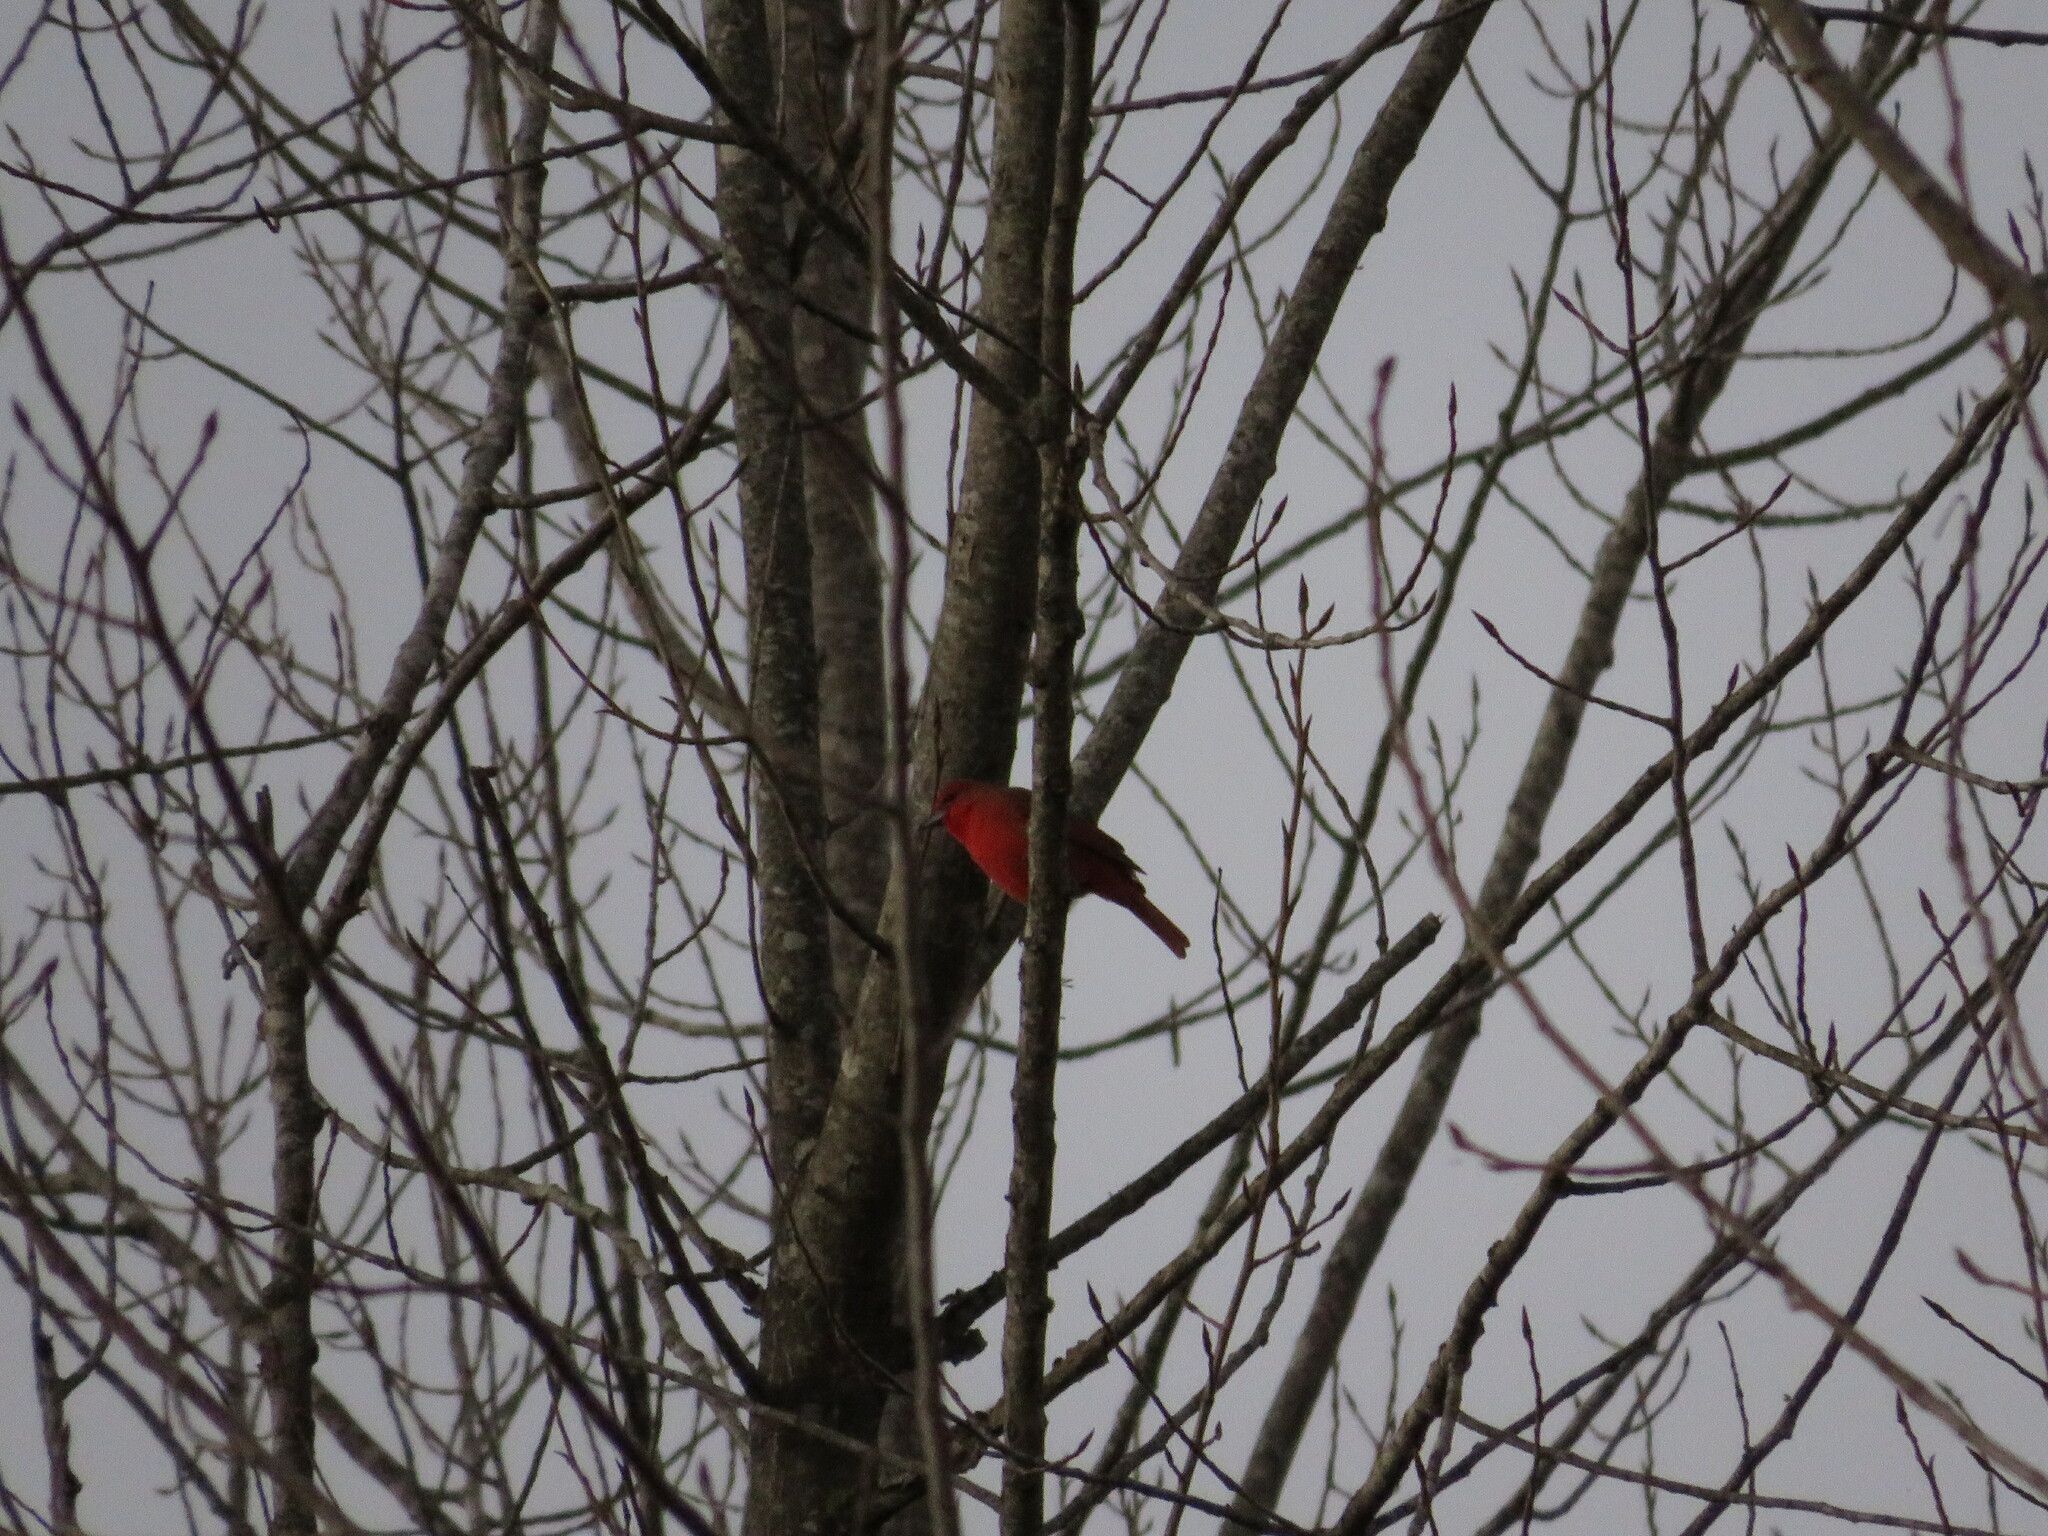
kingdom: Animalia
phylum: Chordata
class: Aves
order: Passeriformes
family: Cardinalidae
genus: Piranga
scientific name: Piranga flava
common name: Red tanager
